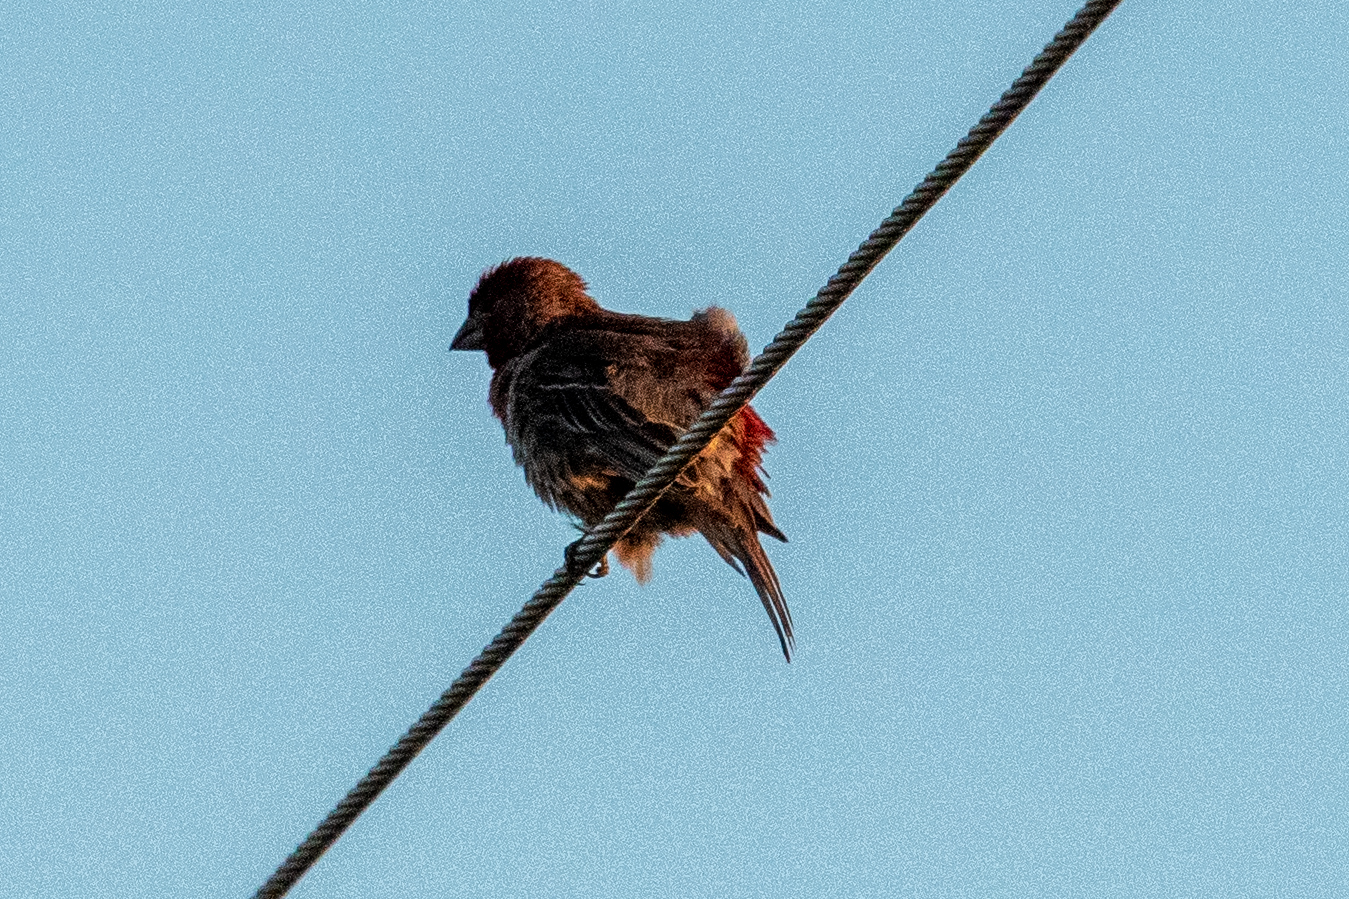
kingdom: Animalia
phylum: Chordata
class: Aves
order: Passeriformes
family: Fringillidae
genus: Haemorhous
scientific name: Haemorhous mexicanus
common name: House finch
